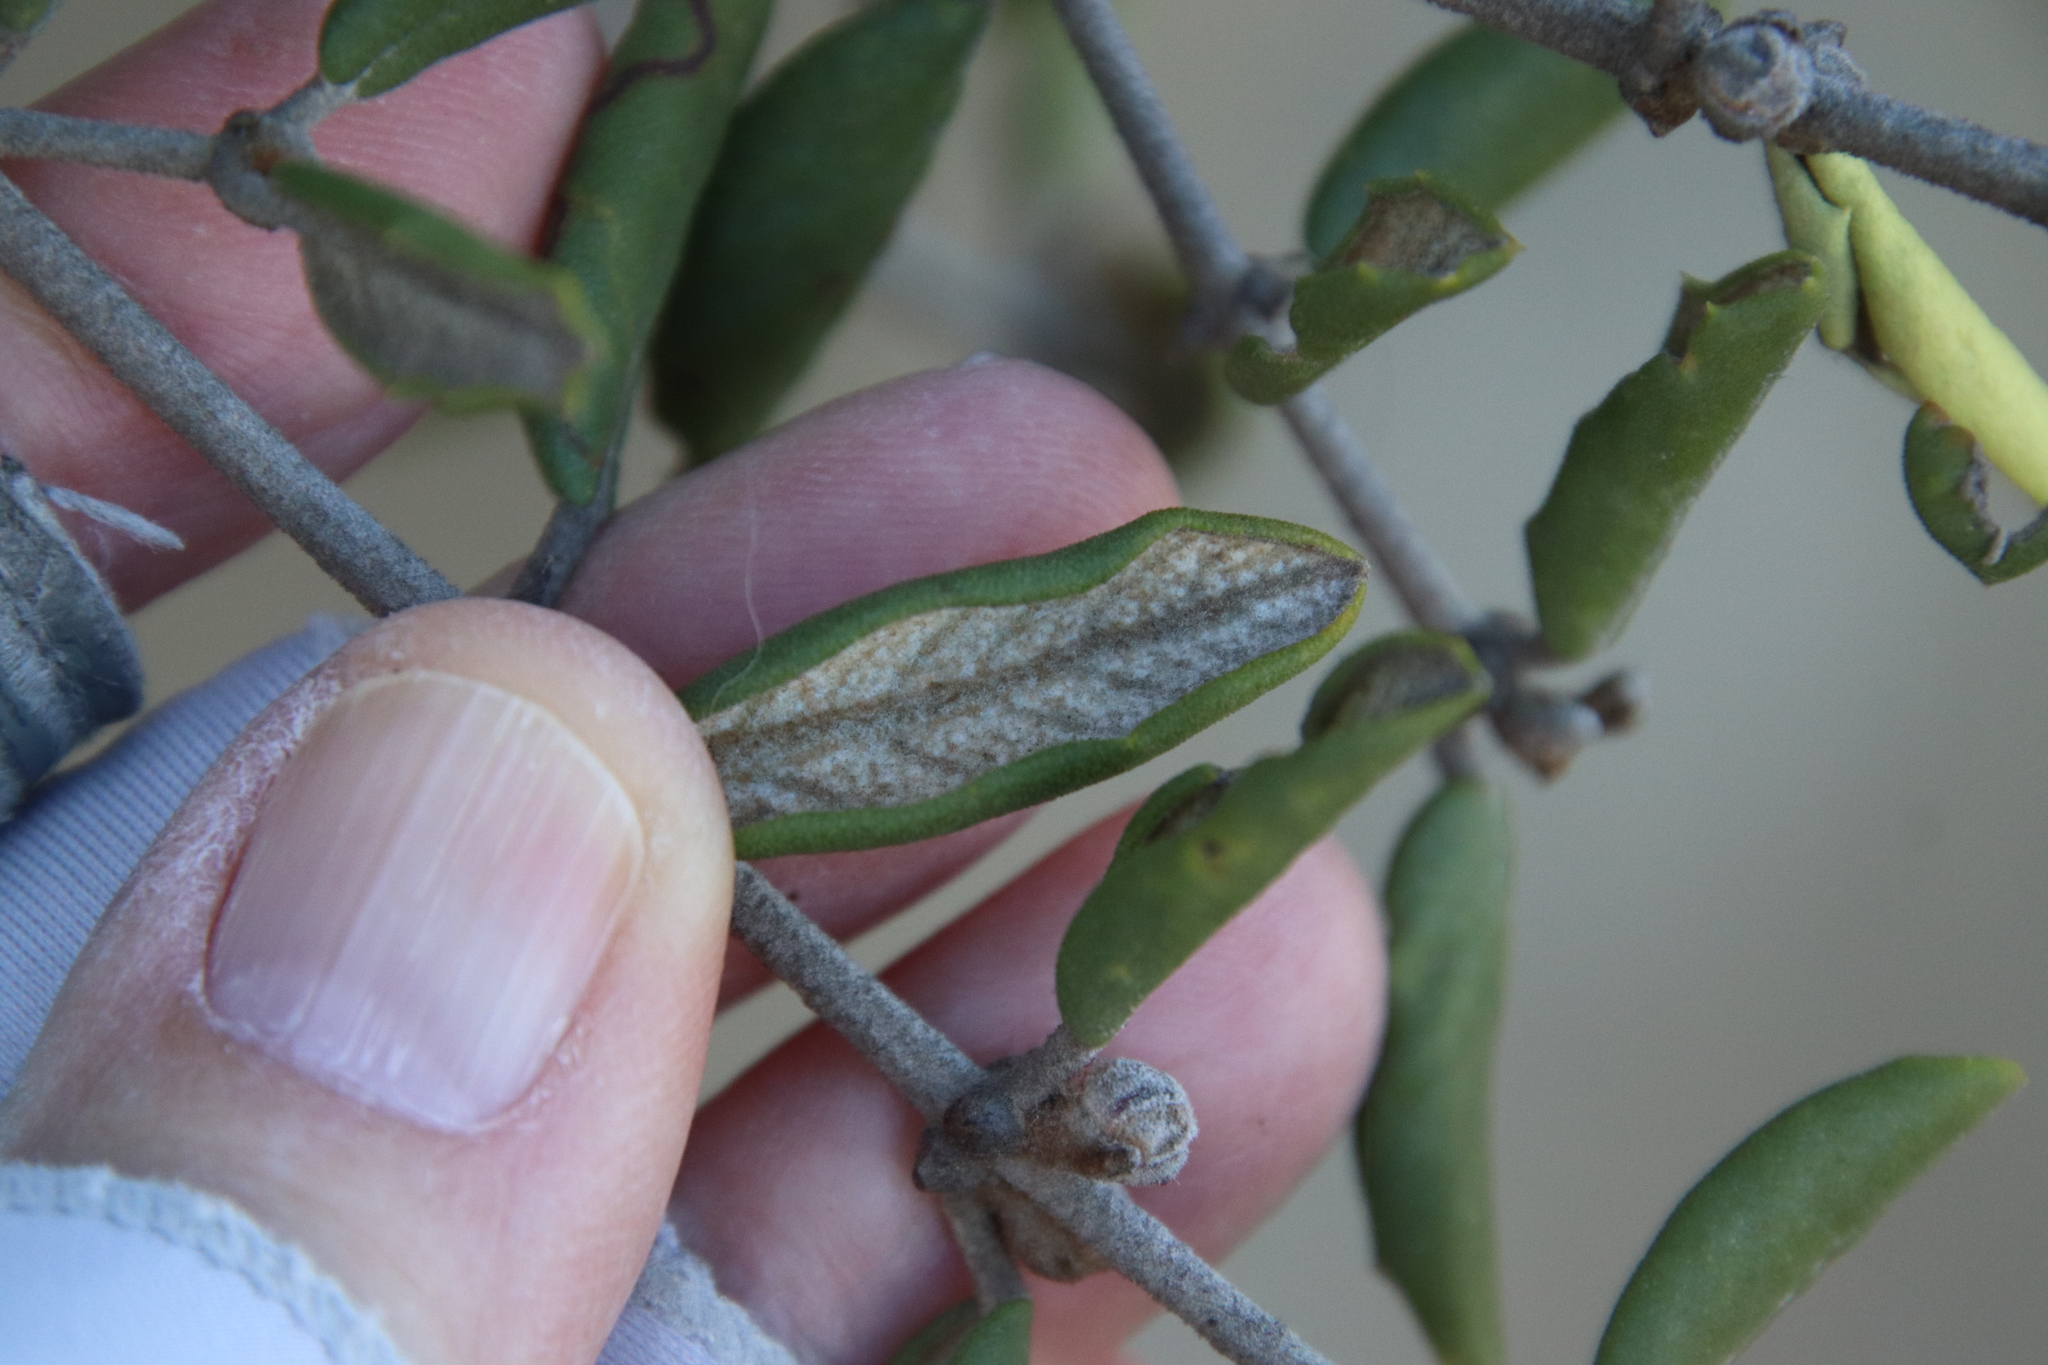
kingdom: Plantae
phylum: Tracheophyta
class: Magnoliopsida
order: Rosales
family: Rhamnaceae
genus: Ceanothus
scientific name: Ceanothus crassifolius
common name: Hoaryleaf ceanothus
